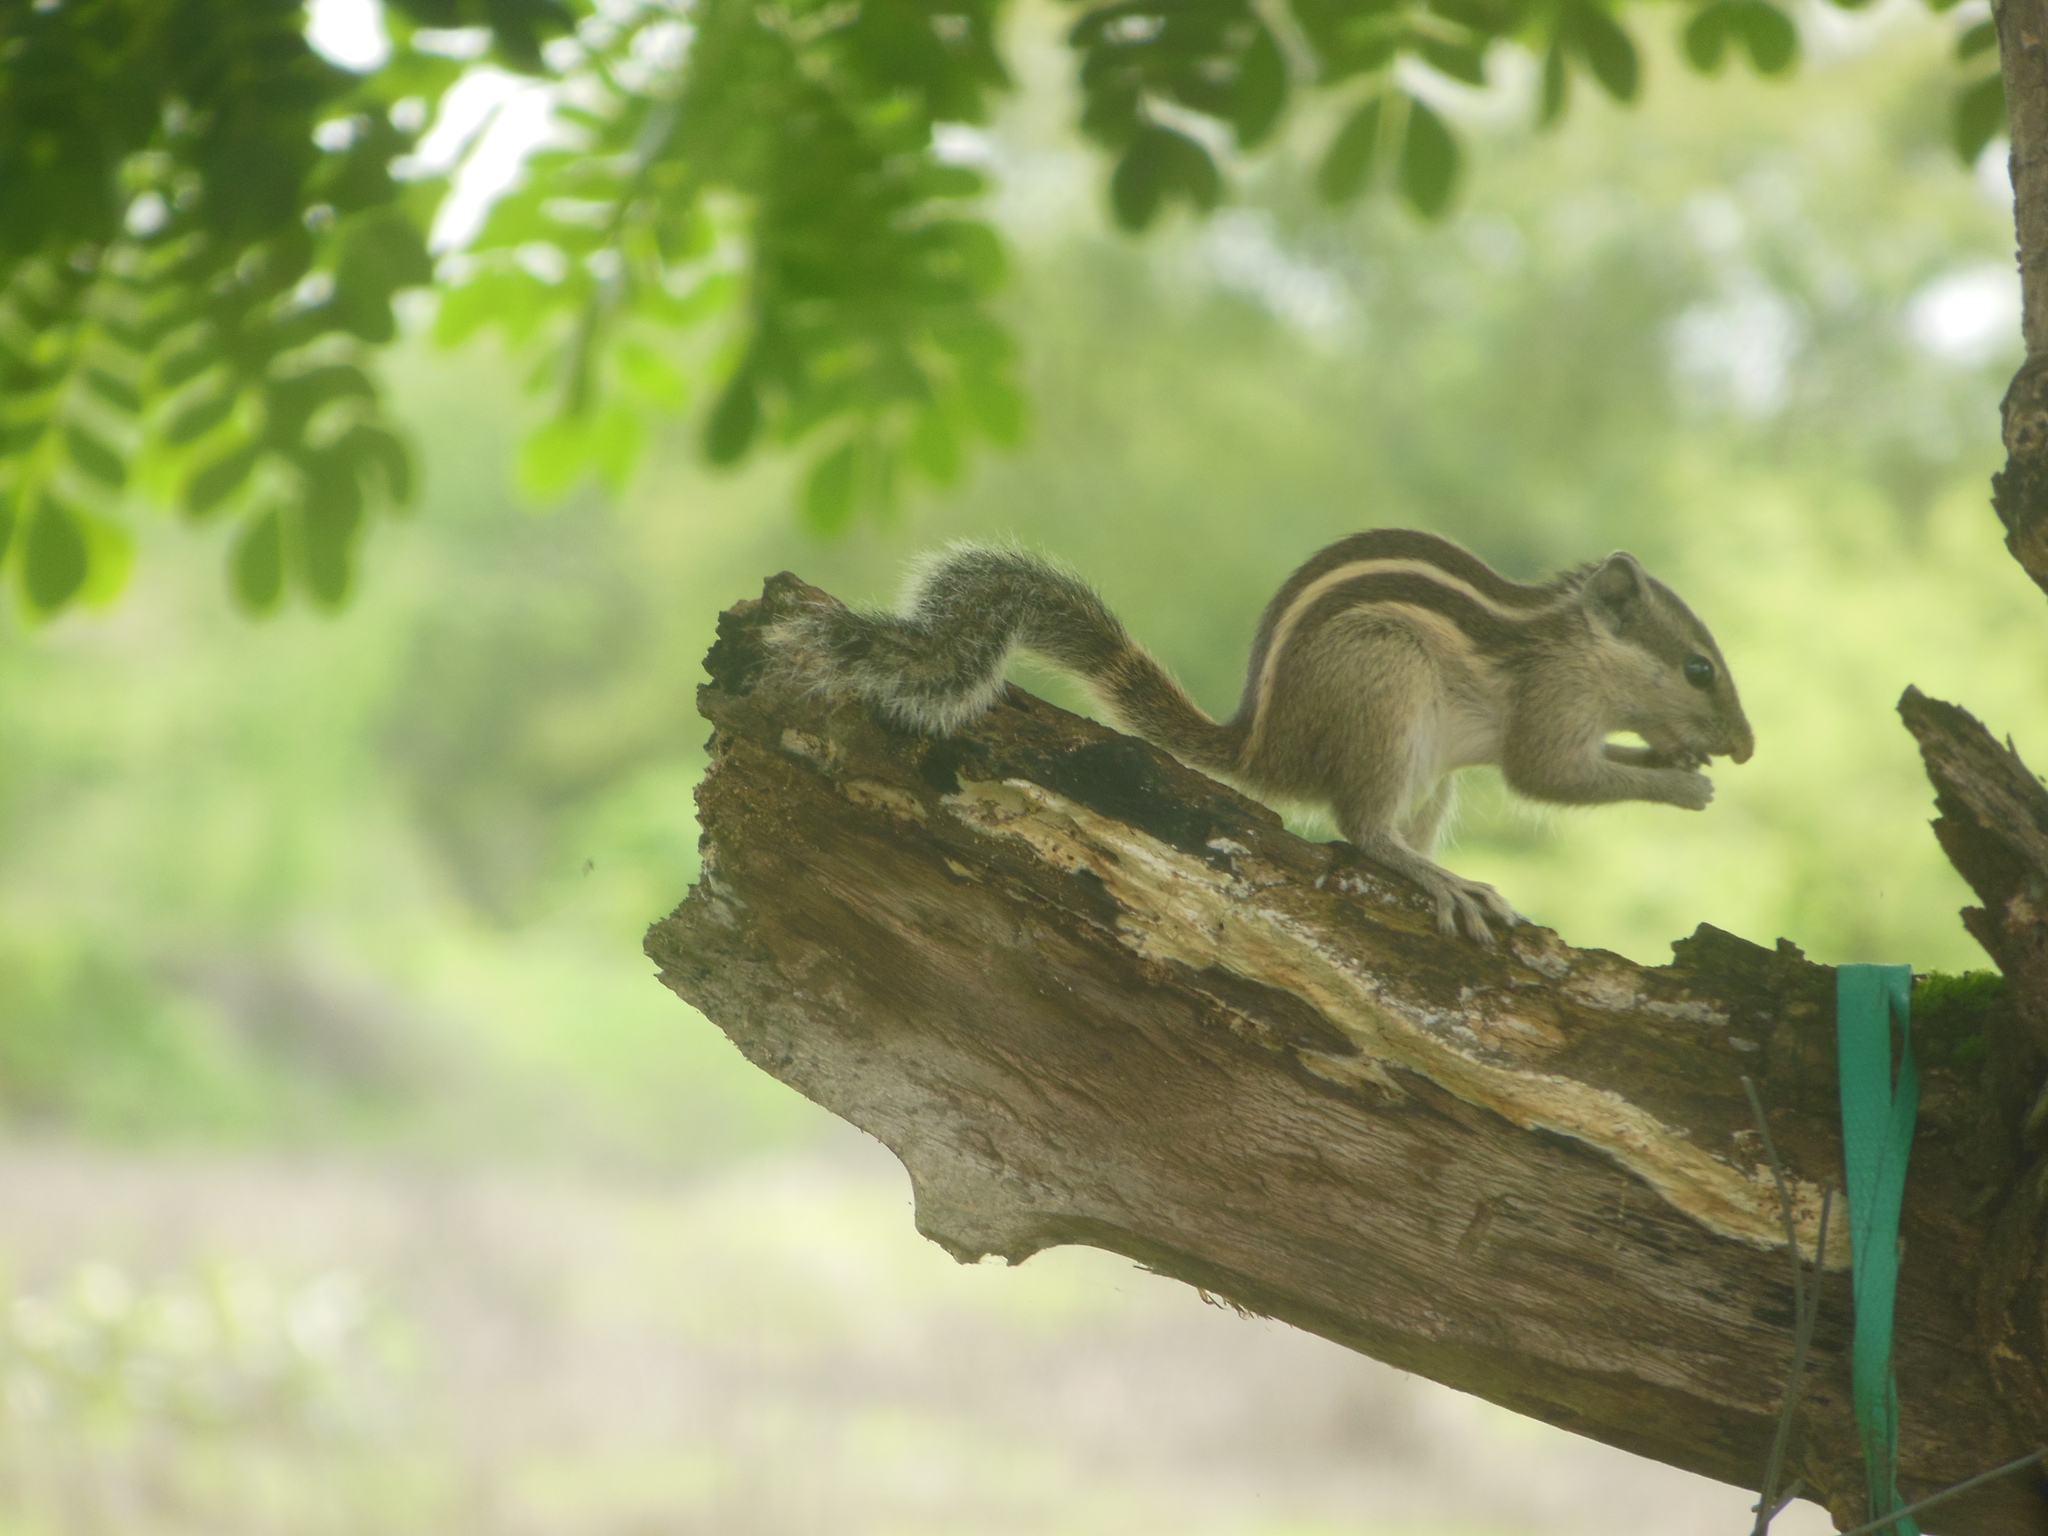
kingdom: Animalia
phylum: Chordata
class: Mammalia
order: Rodentia
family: Sciuridae
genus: Funambulus
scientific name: Funambulus pennantii
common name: Northern palm squirrel
